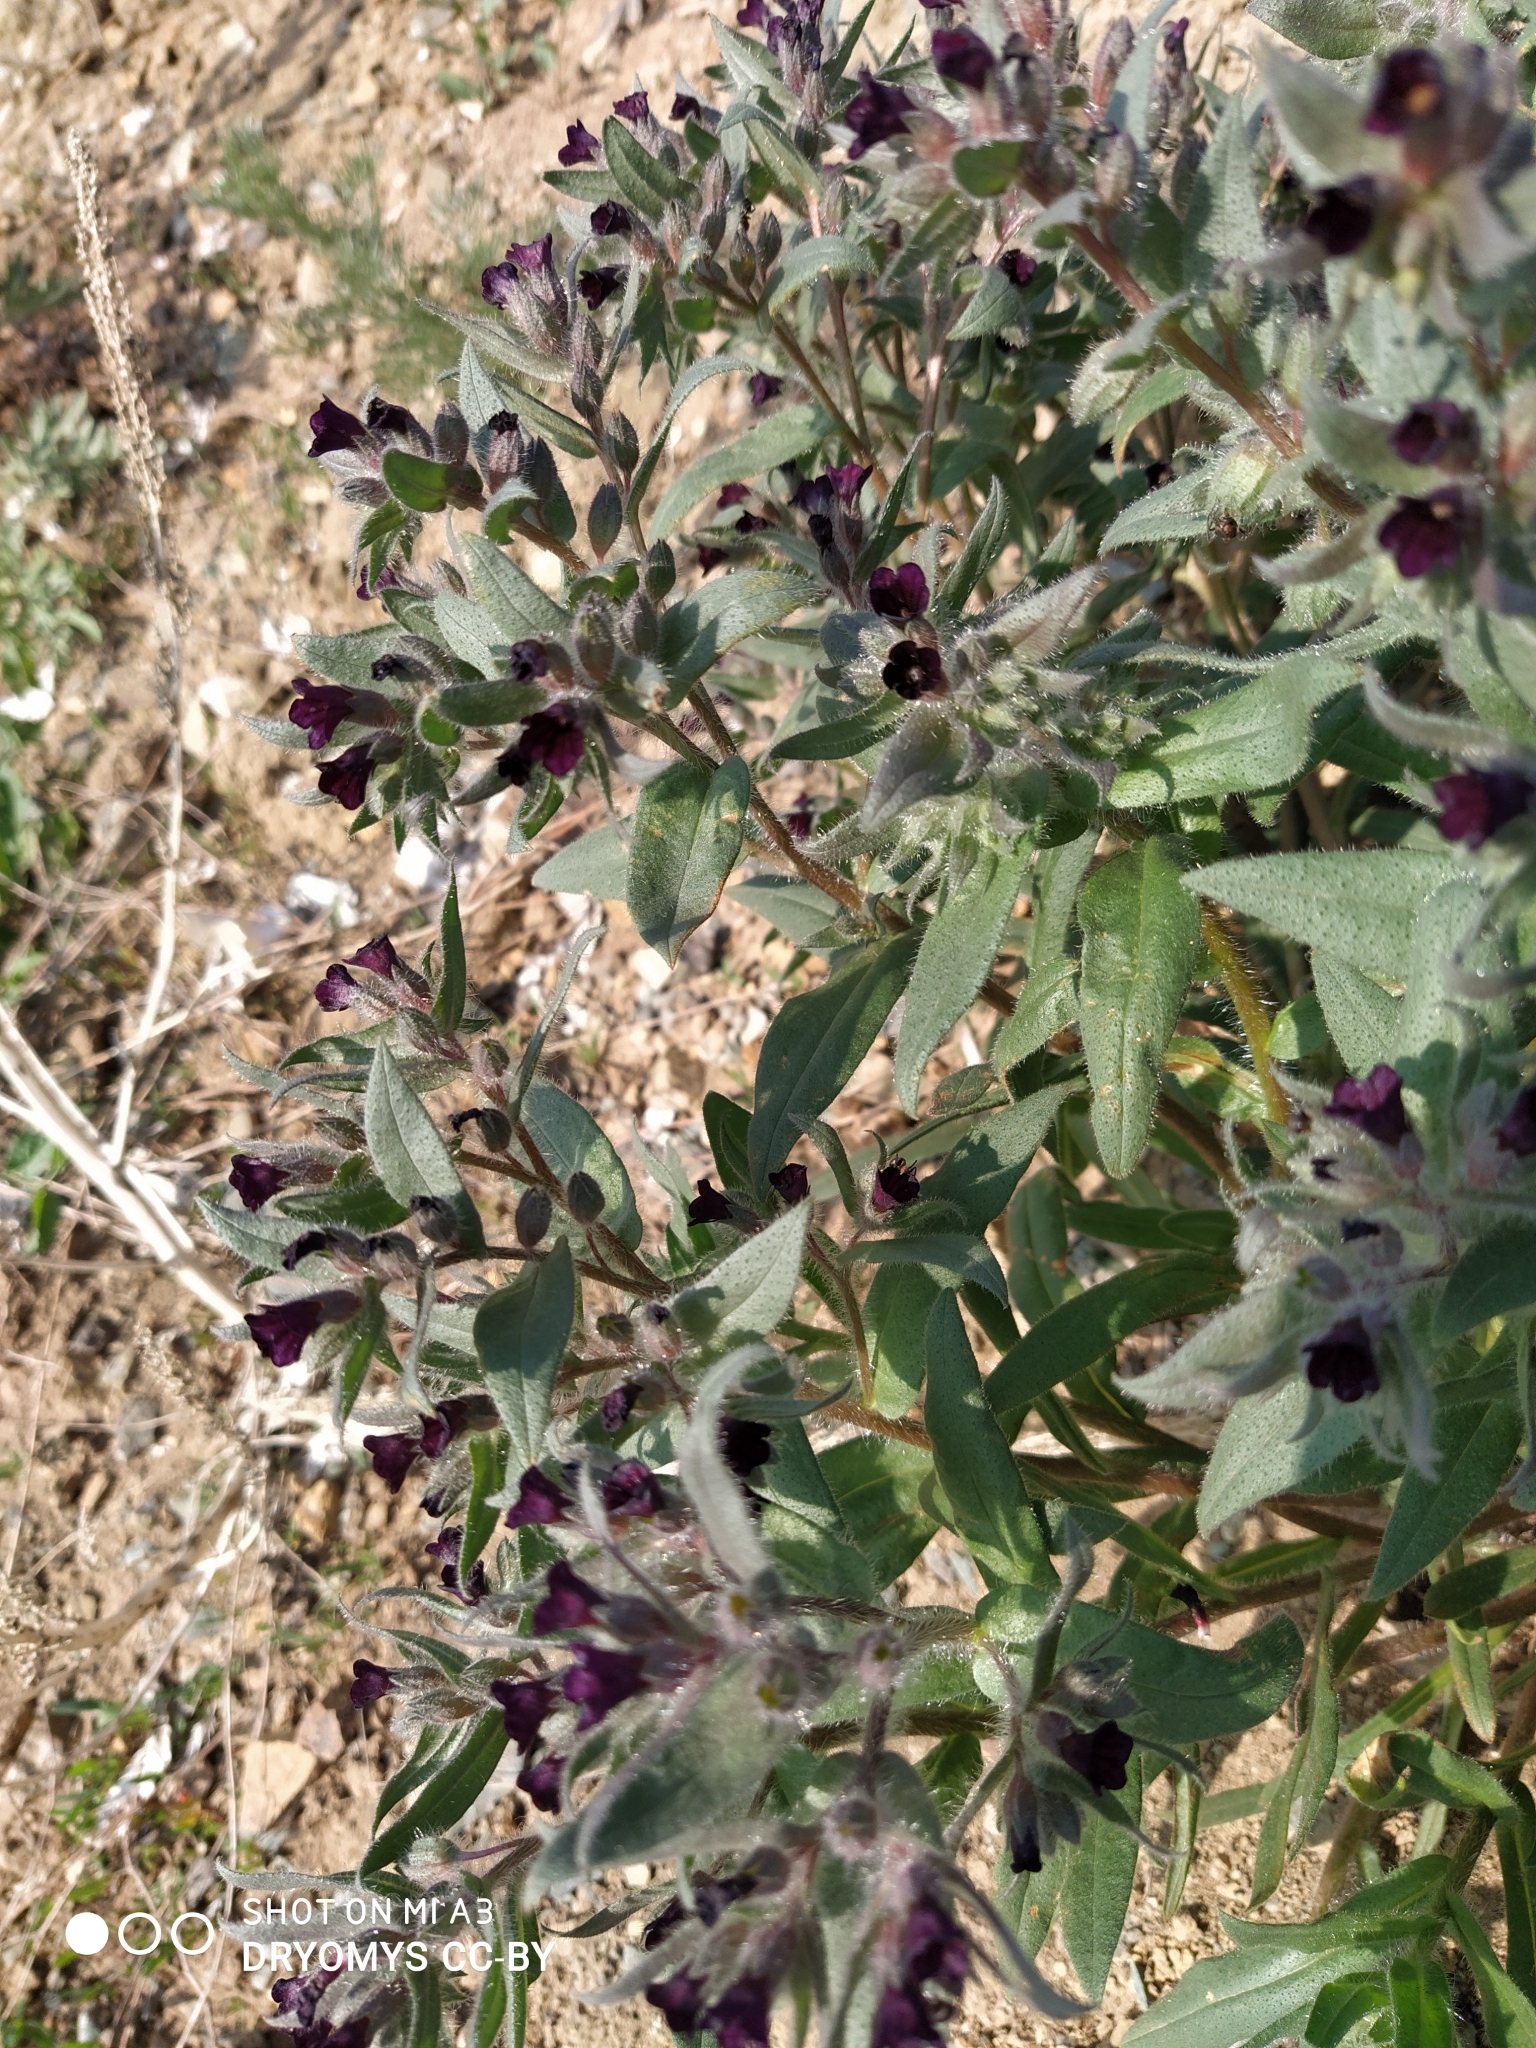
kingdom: Plantae
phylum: Tracheophyta
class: Magnoliopsida
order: Boraginales
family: Boraginaceae
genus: Nonea
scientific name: Nonea pulla
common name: Brown nonea
